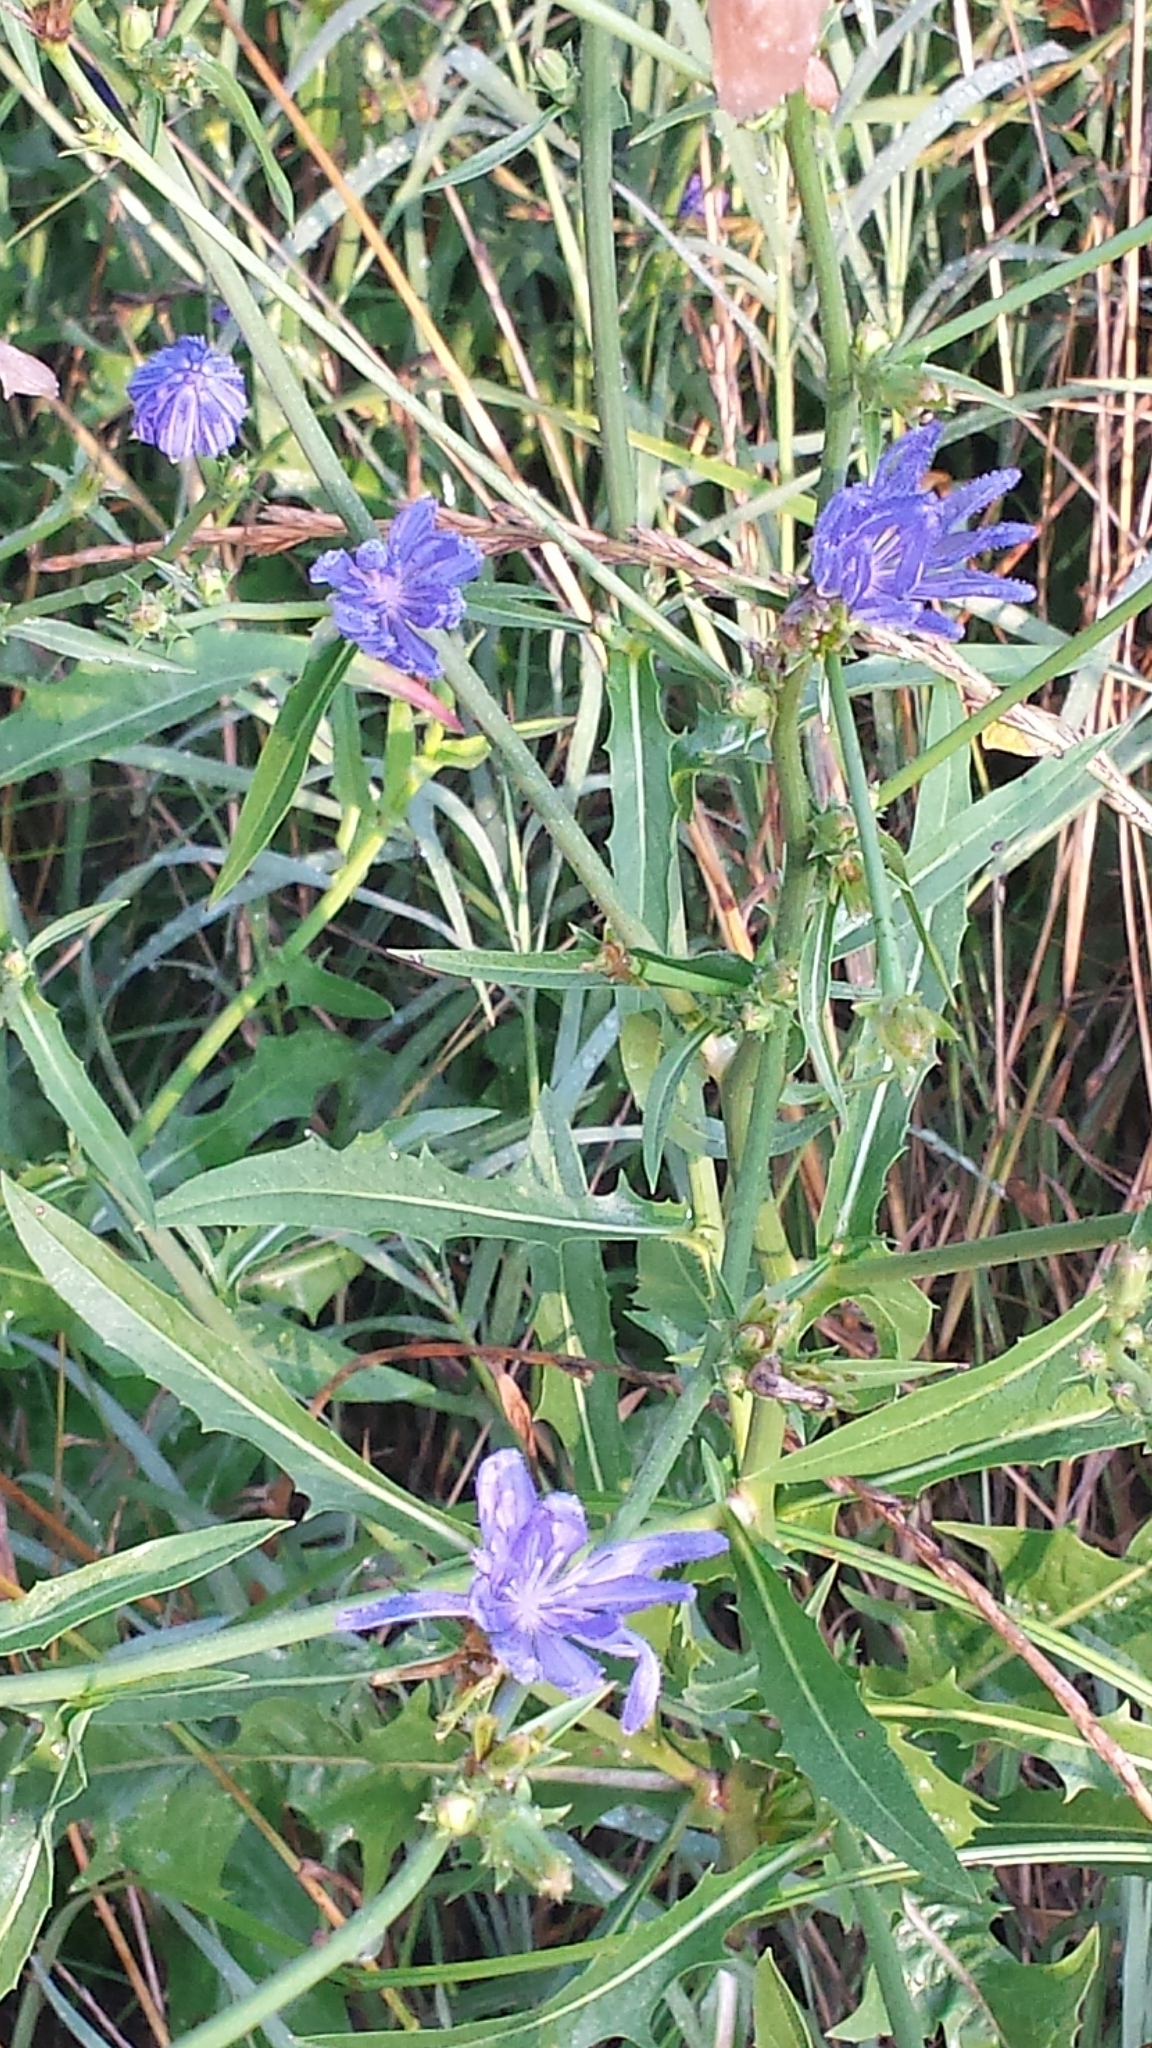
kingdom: Plantae
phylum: Tracheophyta
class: Magnoliopsida
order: Asterales
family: Asteraceae
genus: Cichorium
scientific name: Cichorium intybus
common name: Chicory
